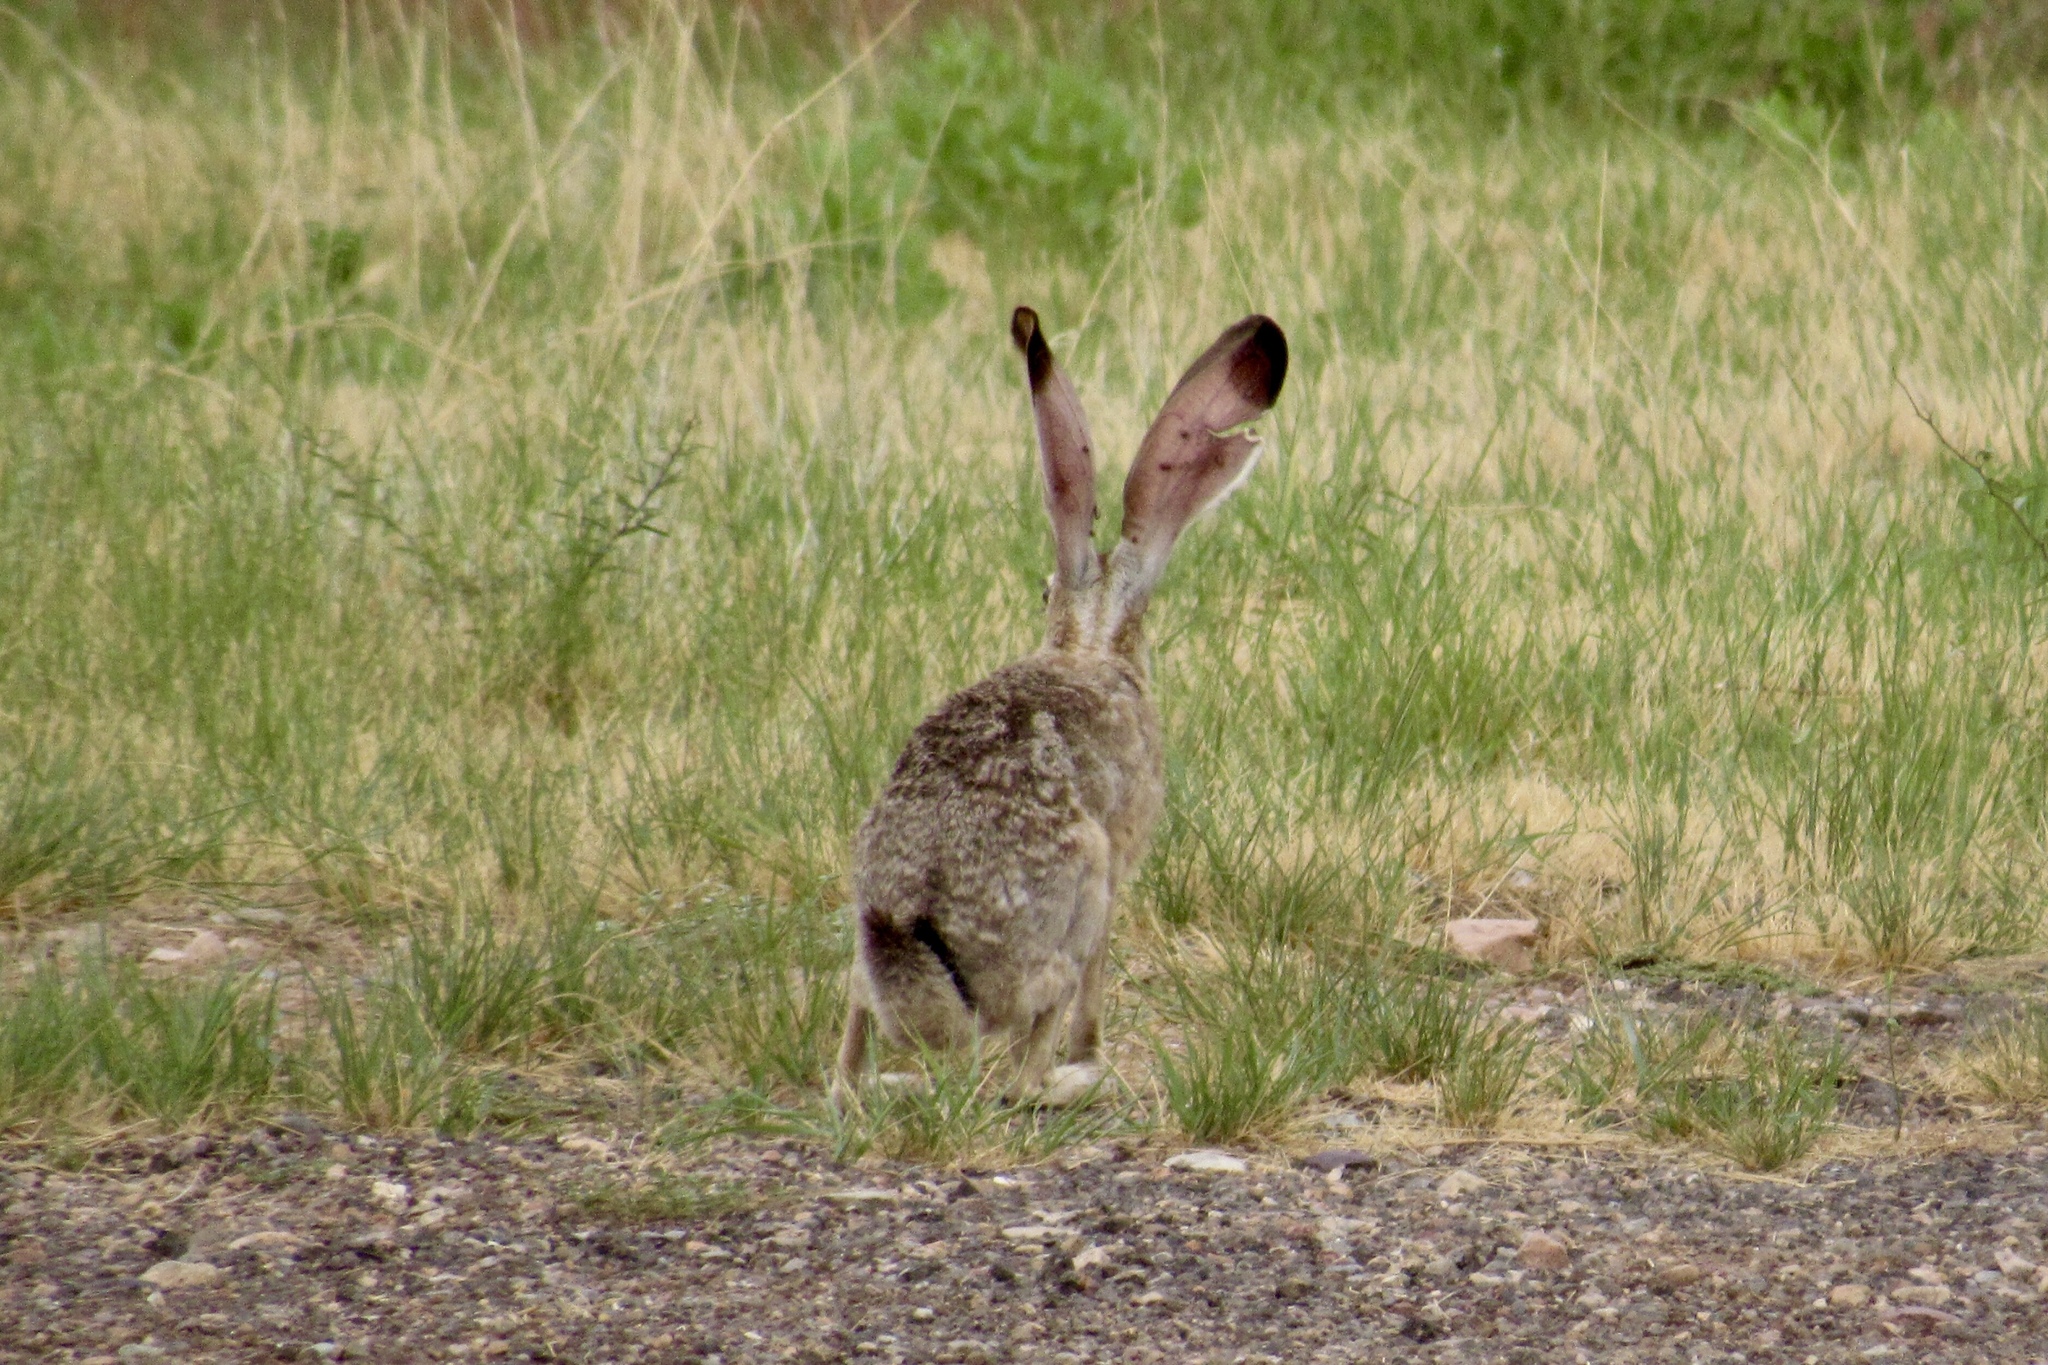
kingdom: Animalia
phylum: Chordata
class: Mammalia
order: Lagomorpha
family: Leporidae
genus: Lepus
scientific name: Lepus californicus
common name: Black-tailed jackrabbit
